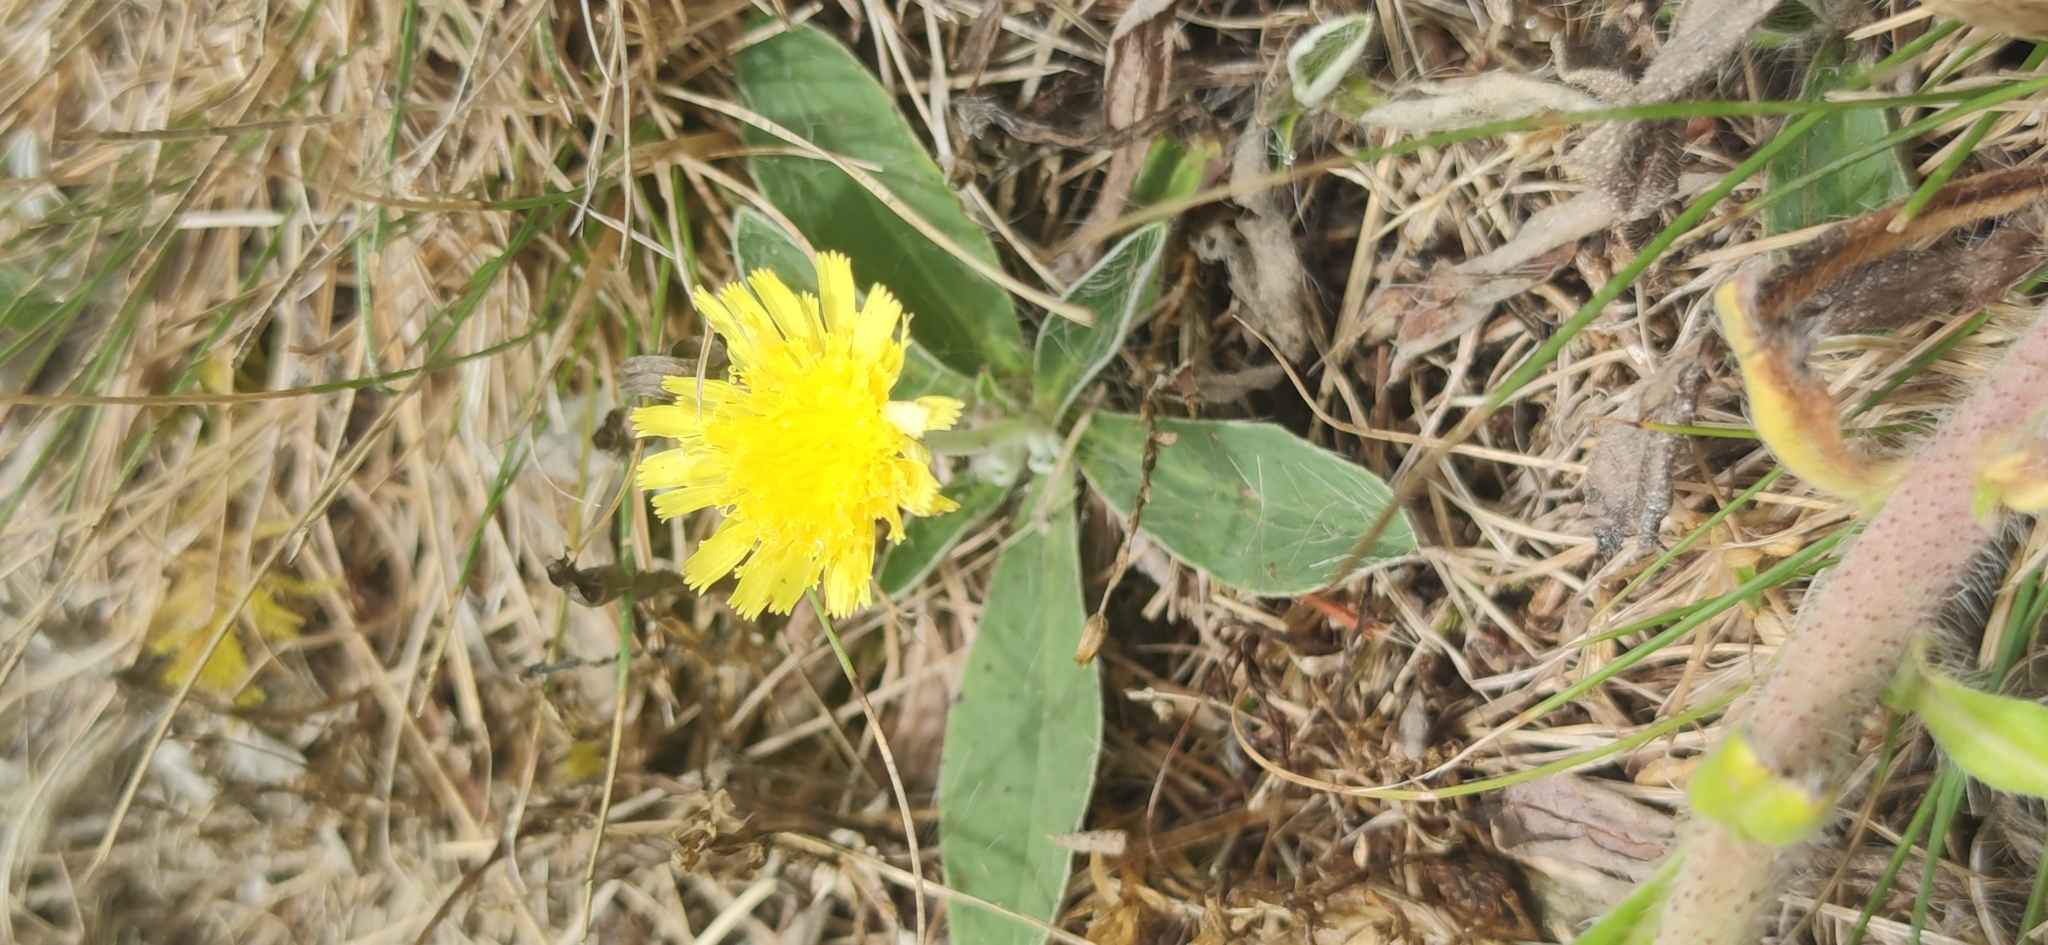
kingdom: Plantae
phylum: Tracheophyta
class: Magnoliopsida
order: Asterales
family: Asteraceae
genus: Pilosella
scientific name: Pilosella officinarum
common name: Mouse-ear hawkweed
